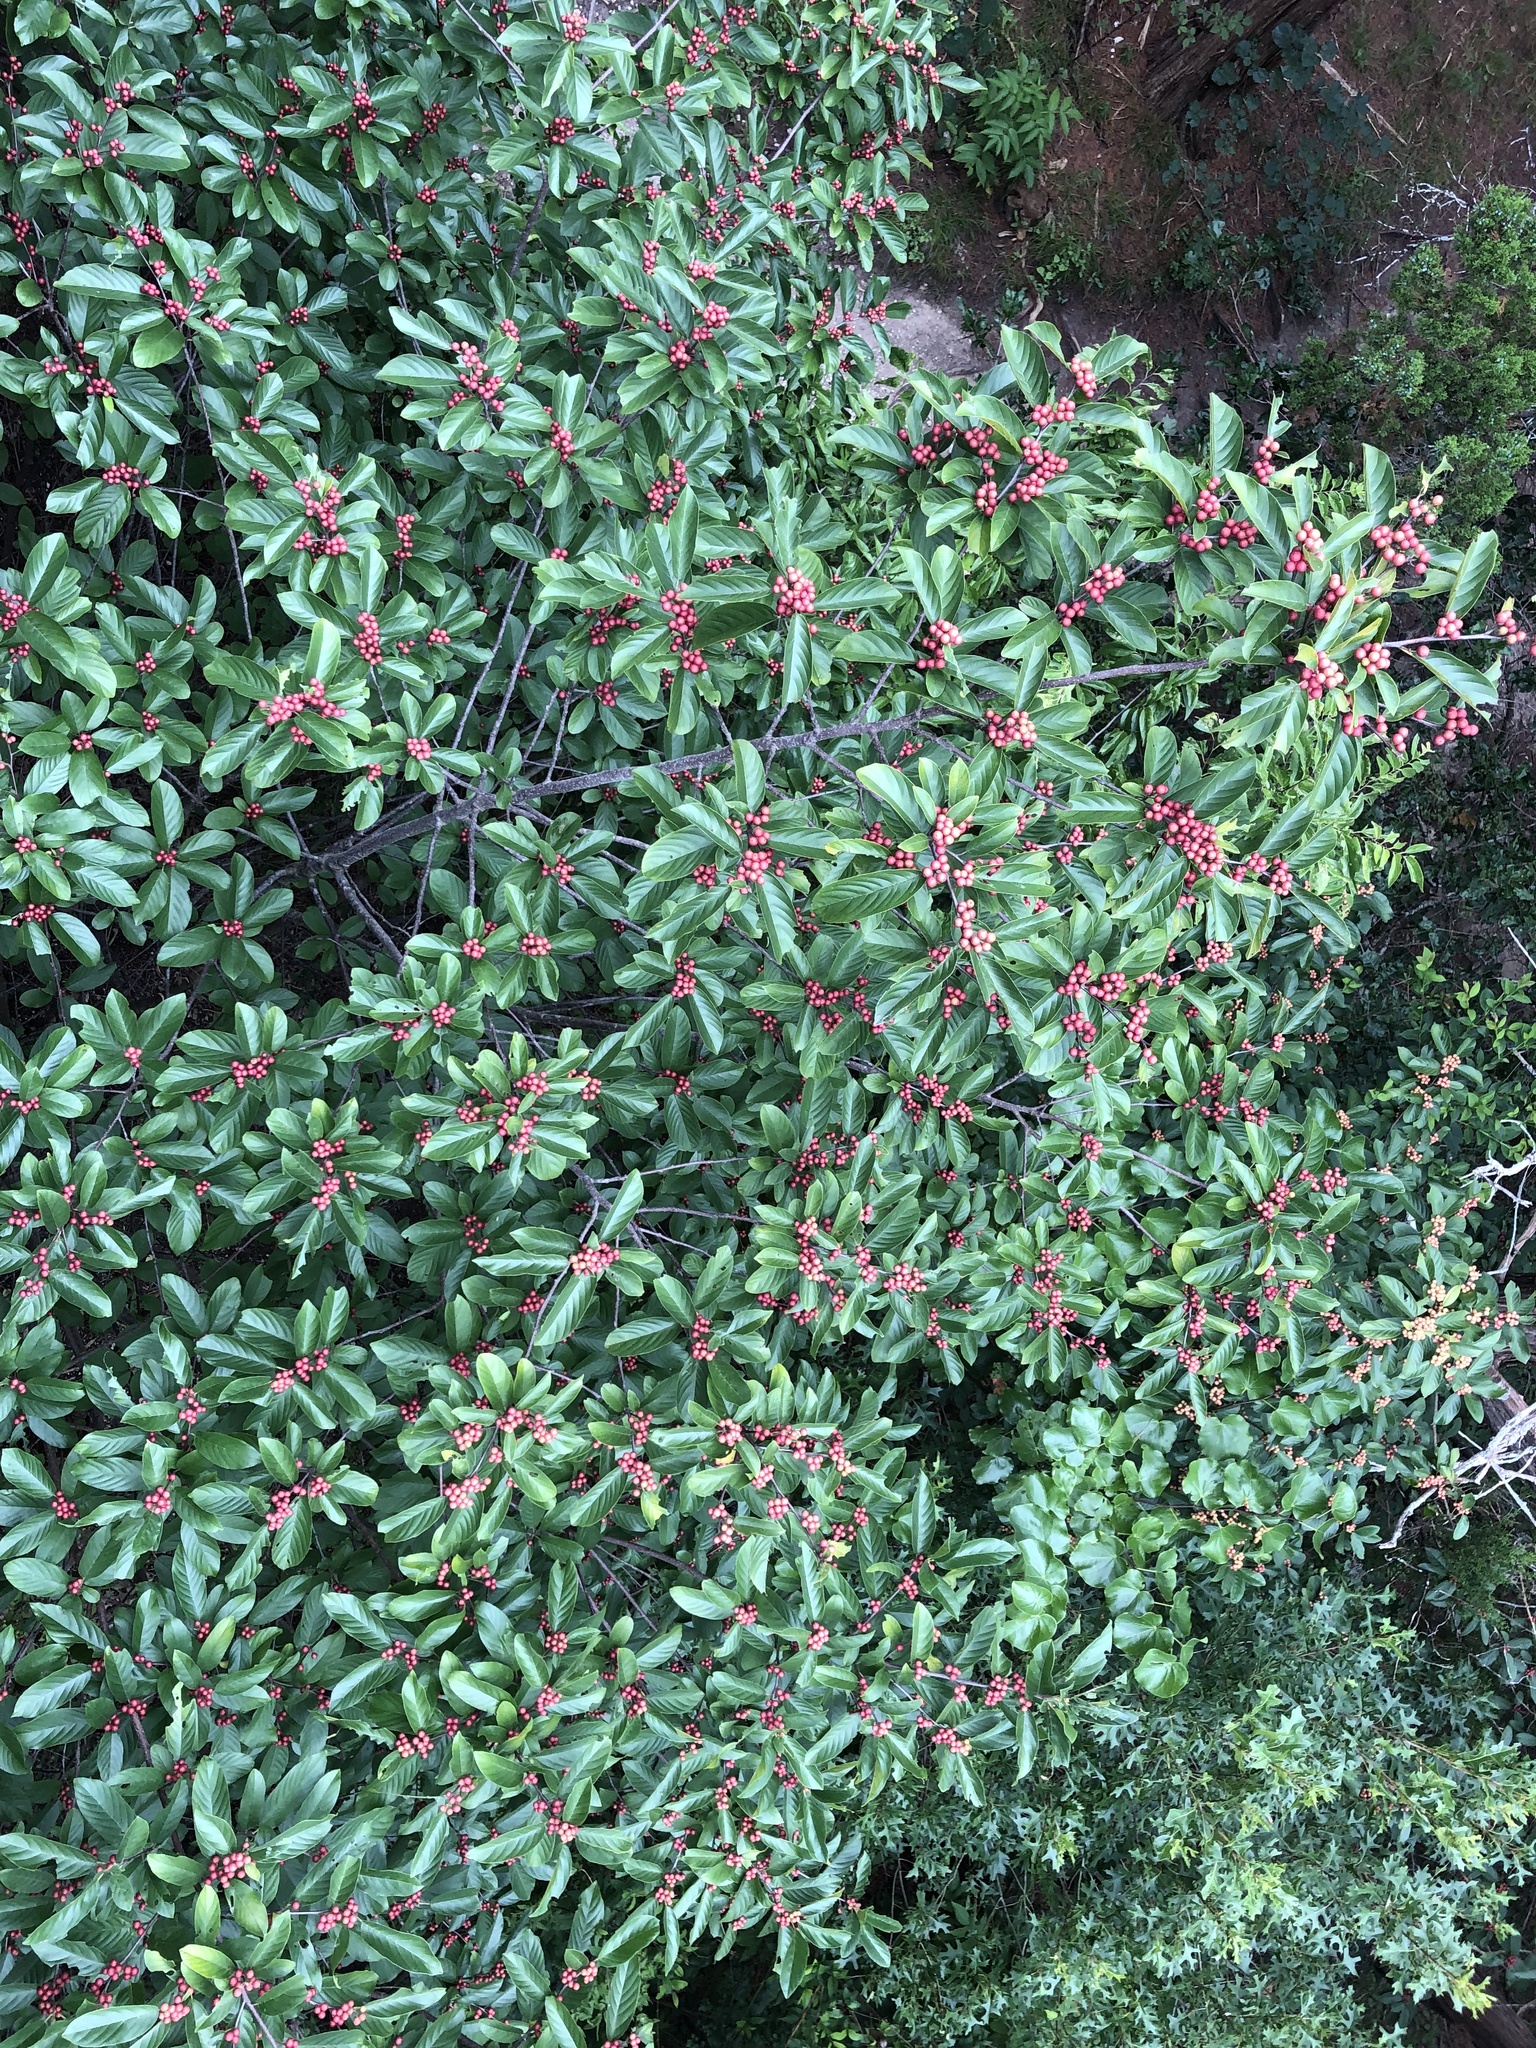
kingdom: Plantae
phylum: Tracheophyta
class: Magnoliopsida
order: Rosales
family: Rhamnaceae
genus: Frangula
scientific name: Frangula caroliniana
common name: Carolina buckthorn
